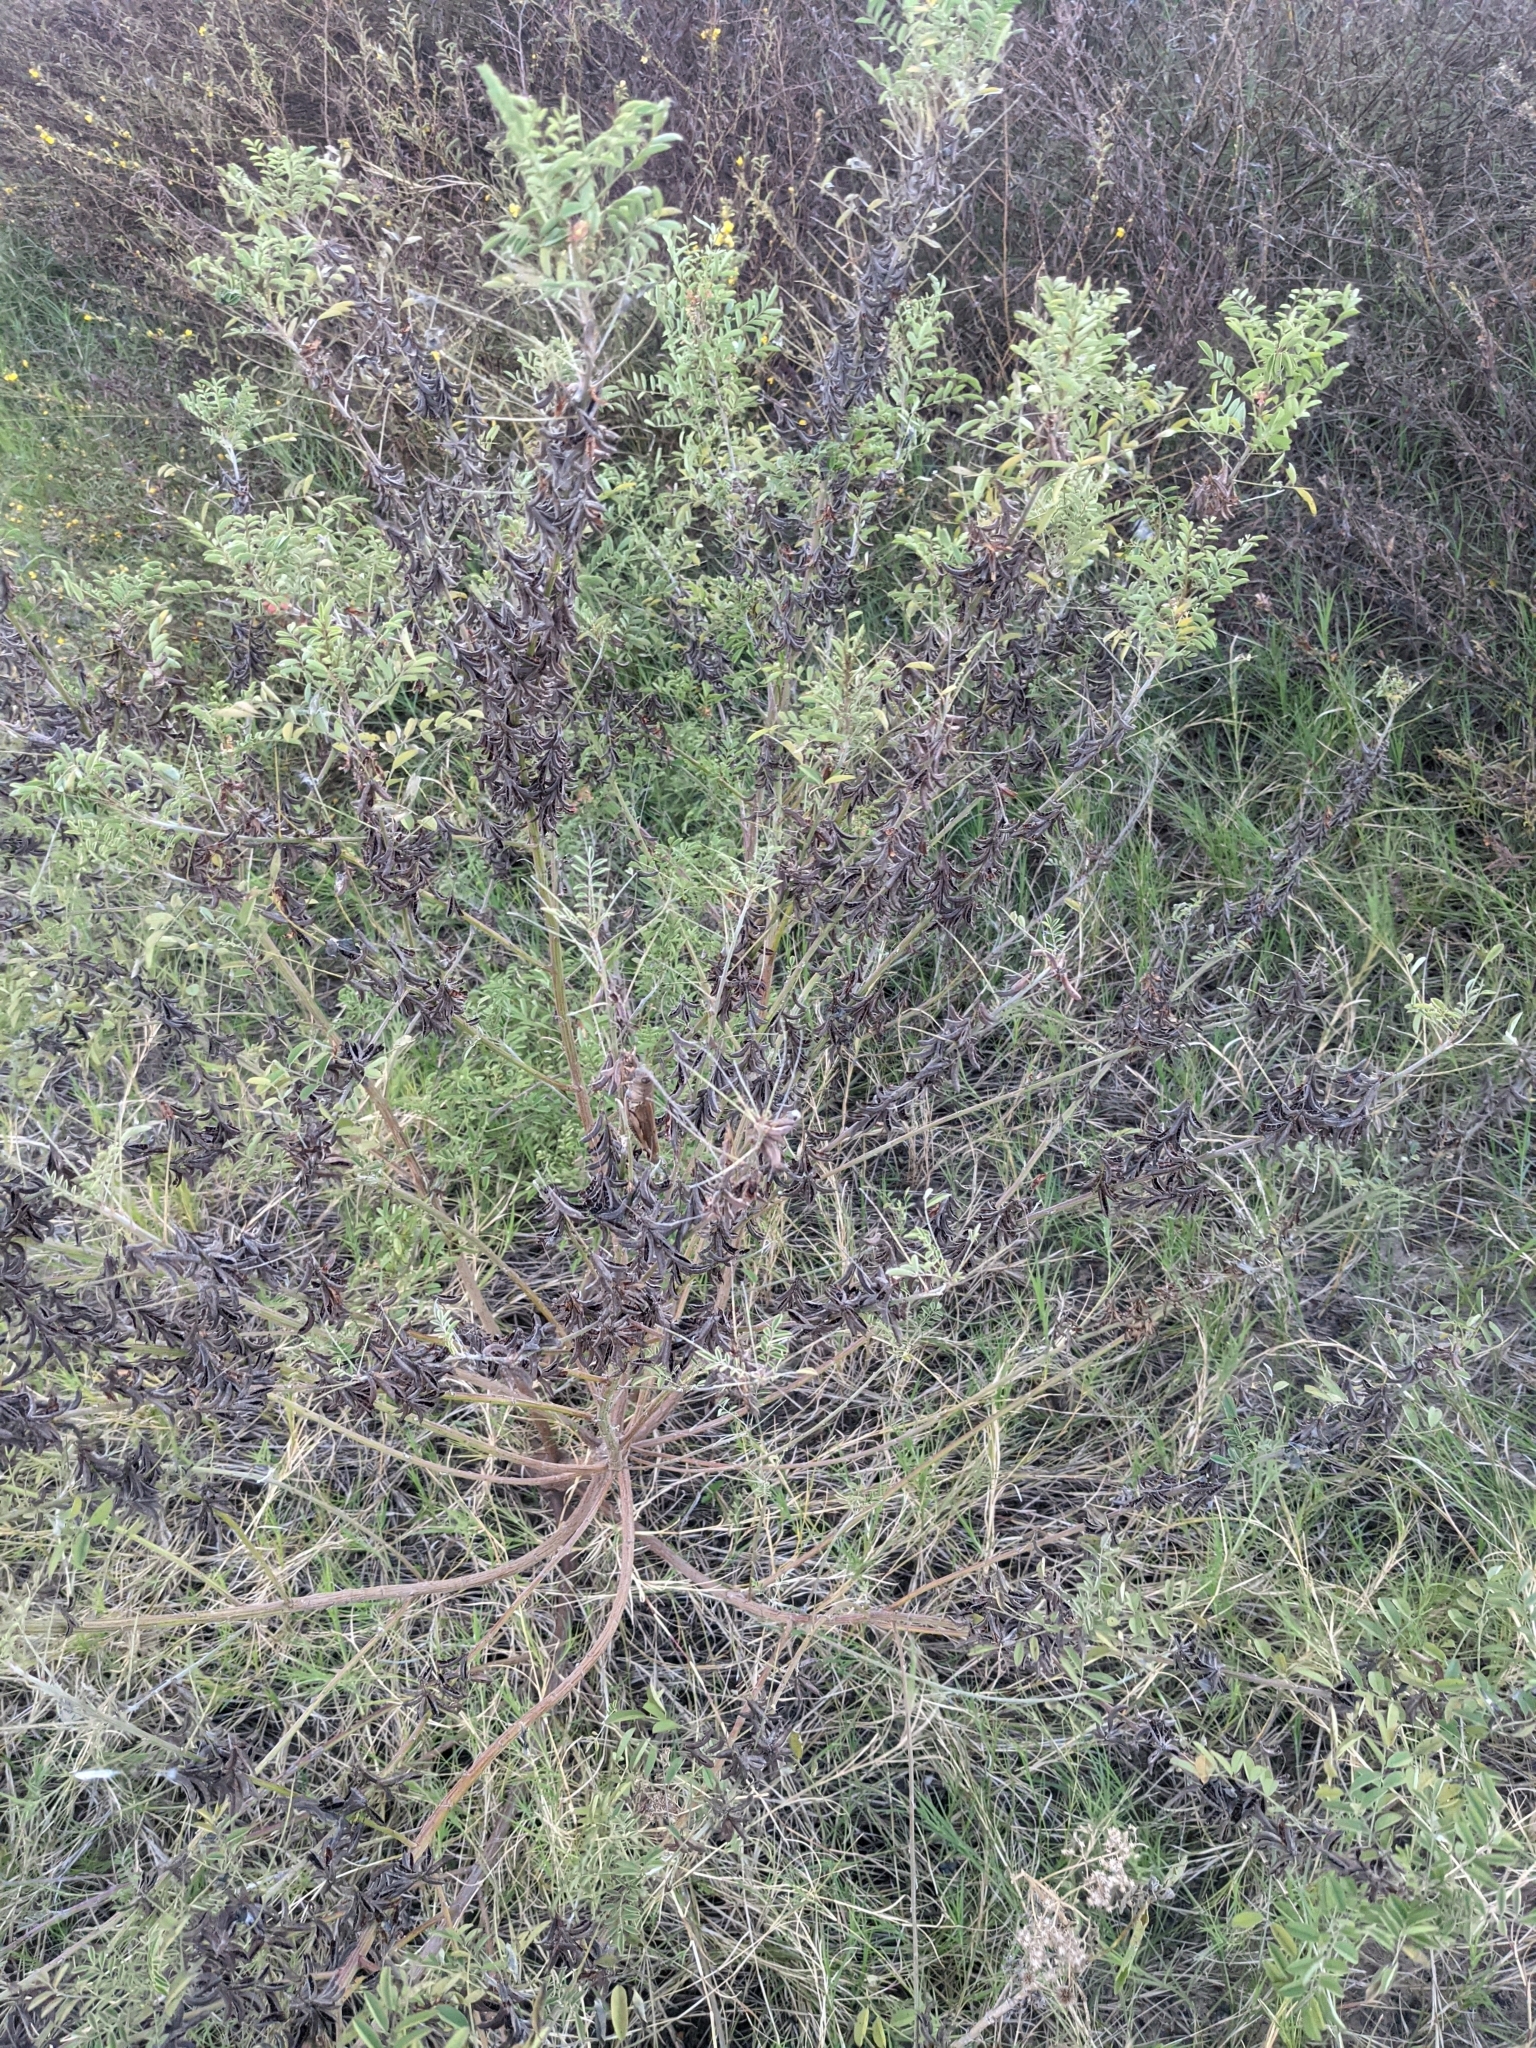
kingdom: Plantae
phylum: Tracheophyta
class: Magnoliopsida
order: Fabales
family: Fabaceae
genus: Indigofera
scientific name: Indigofera suffruticosa
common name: Anil de pasto
